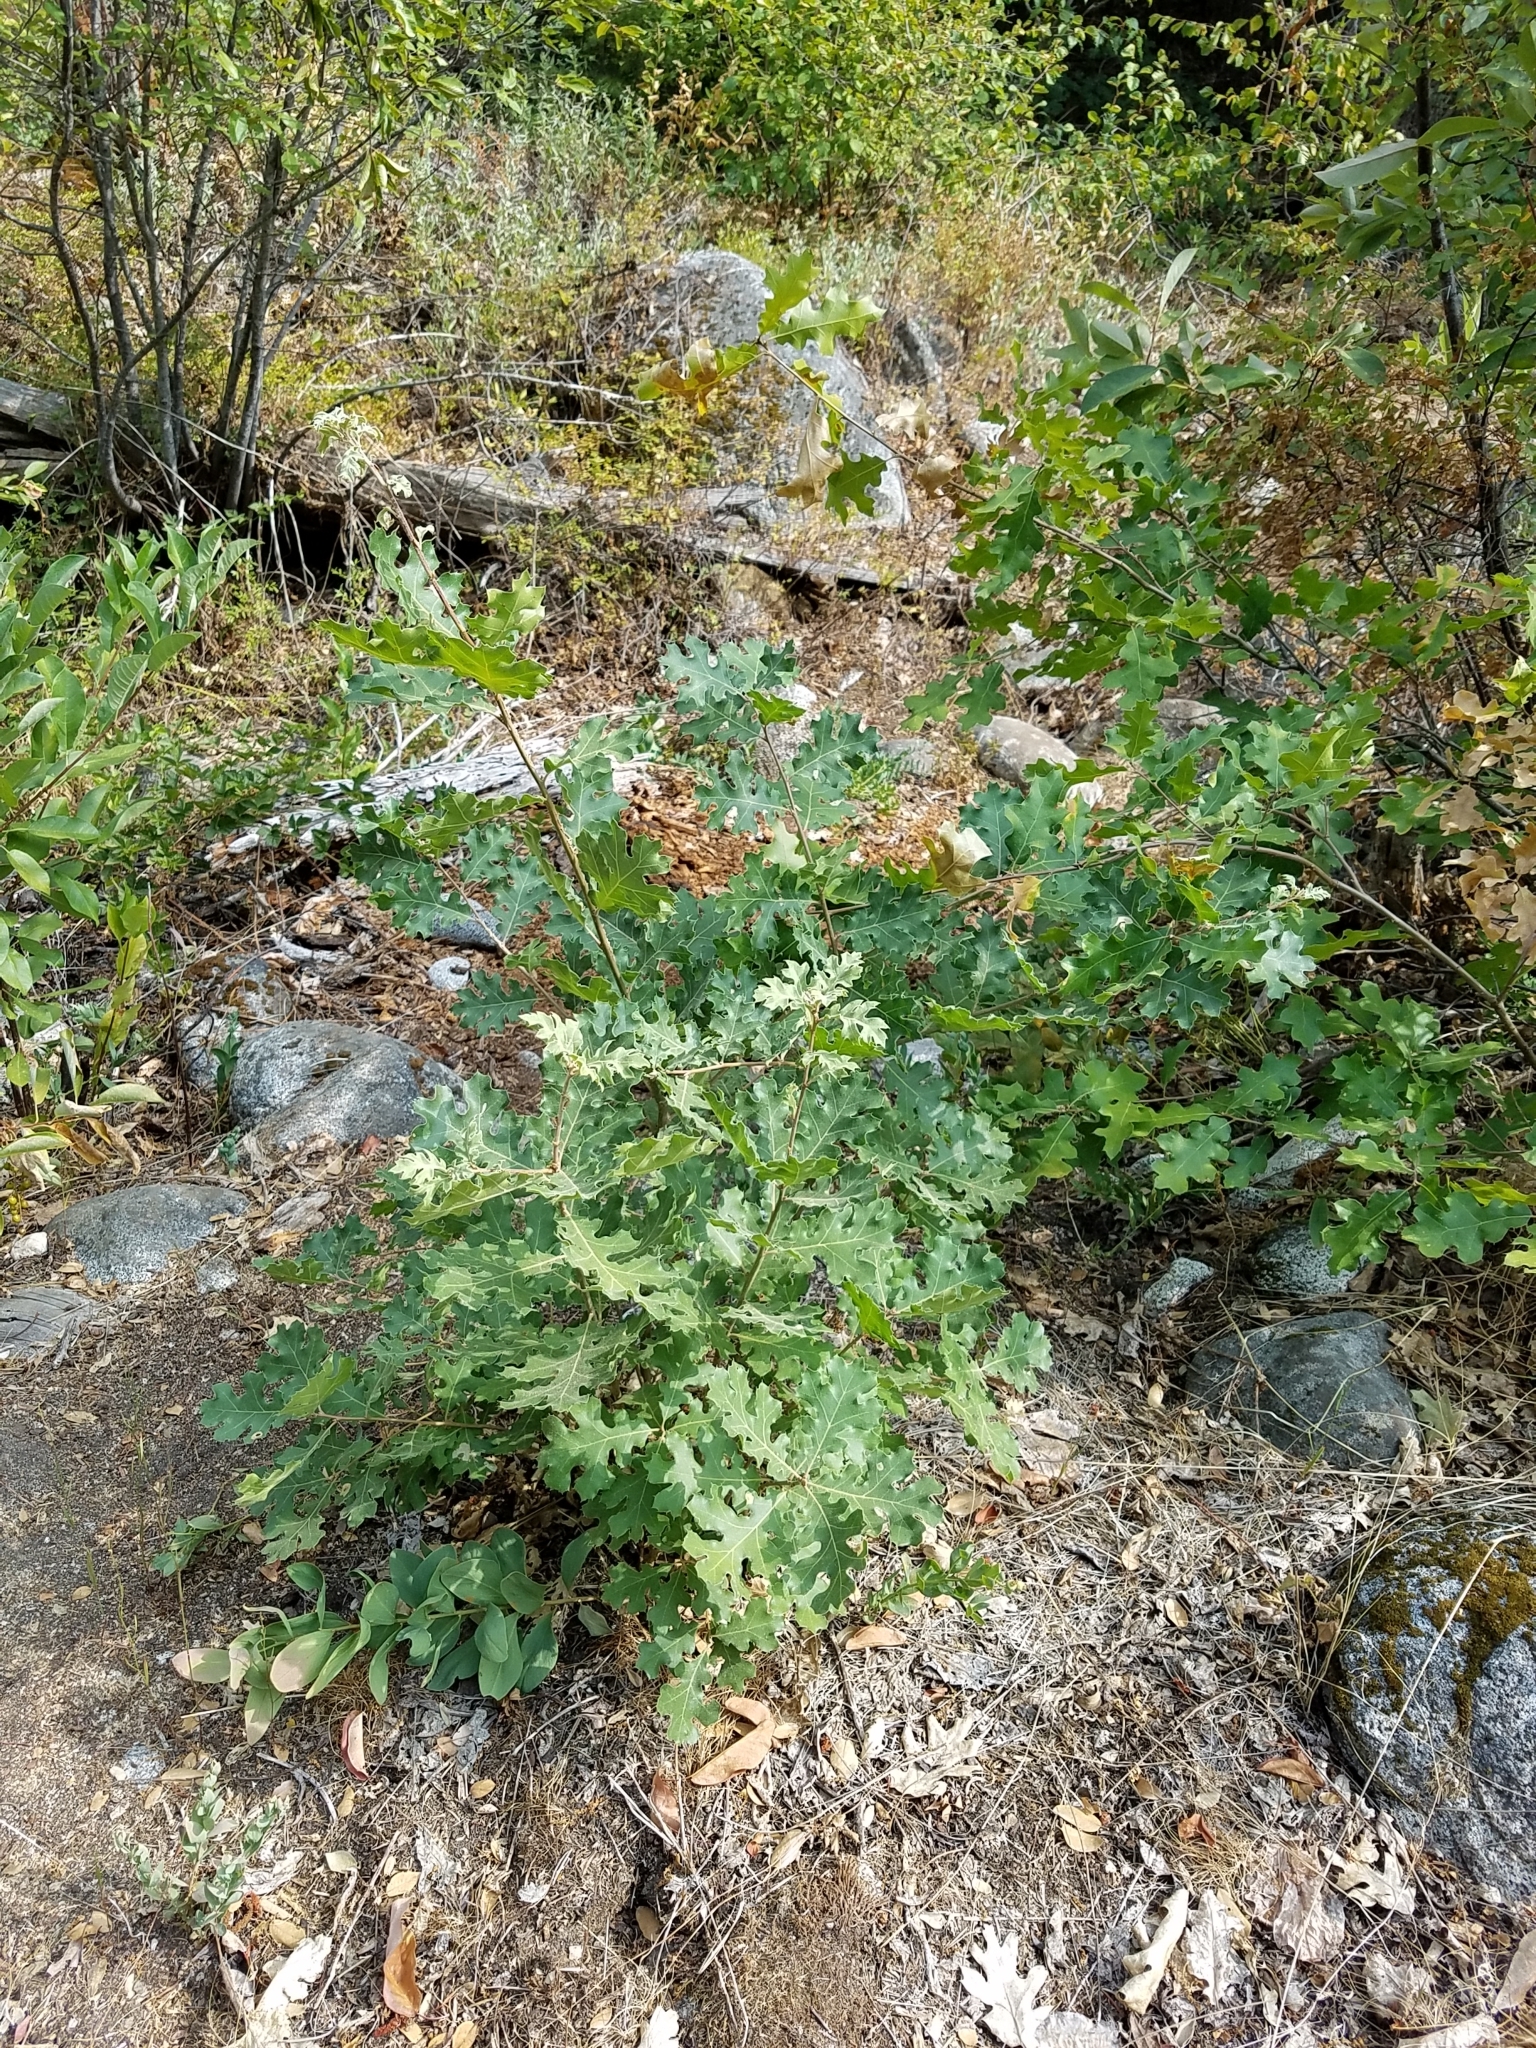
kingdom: Plantae
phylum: Tracheophyta
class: Magnoliopsida
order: Fagales
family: Fagaceae
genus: Quercus
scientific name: Quercus kelloggii
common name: California black oak
